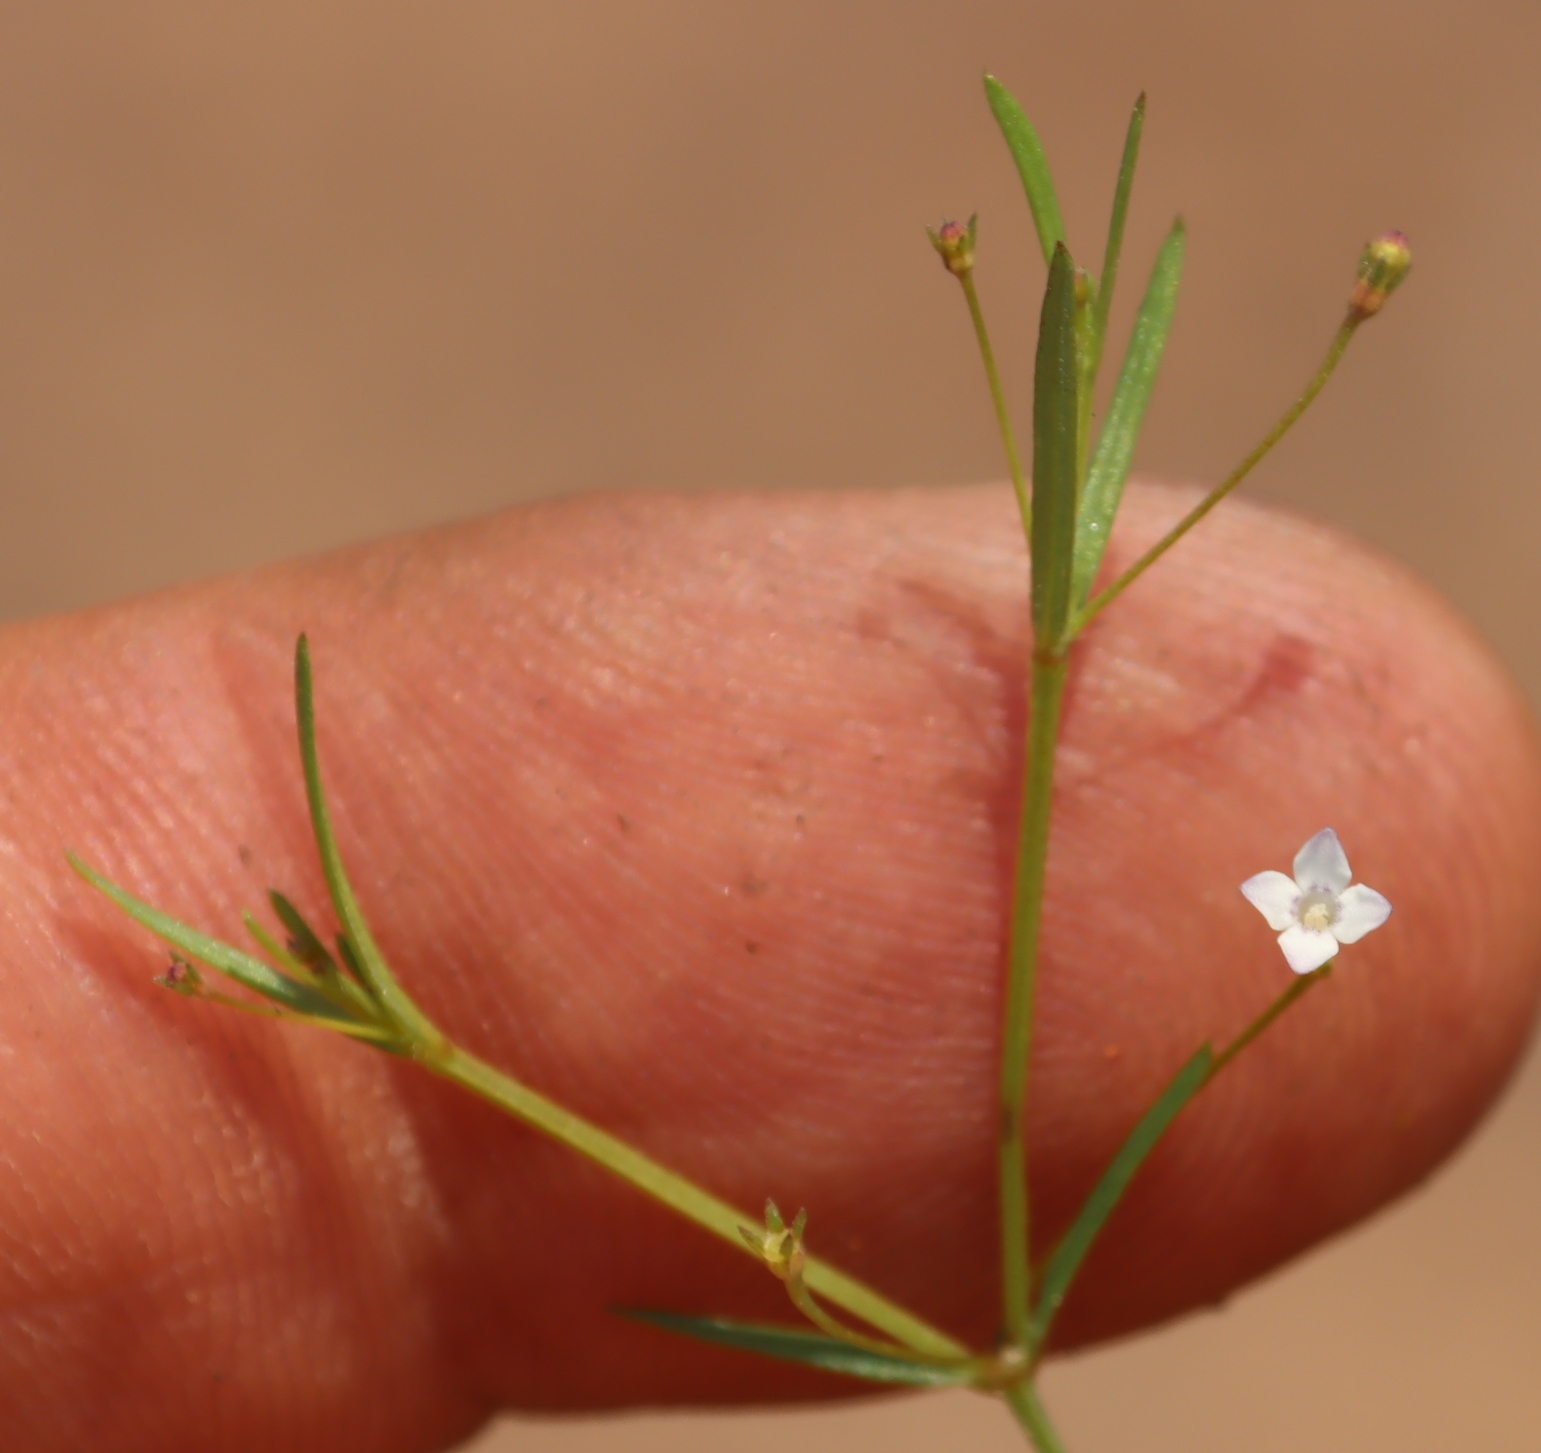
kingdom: Plantae
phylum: Tracheophyta
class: Magnoliopsida
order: Gentianales
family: Rubiaceae
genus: Oldenlandia
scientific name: Oldenlandia herbacea
